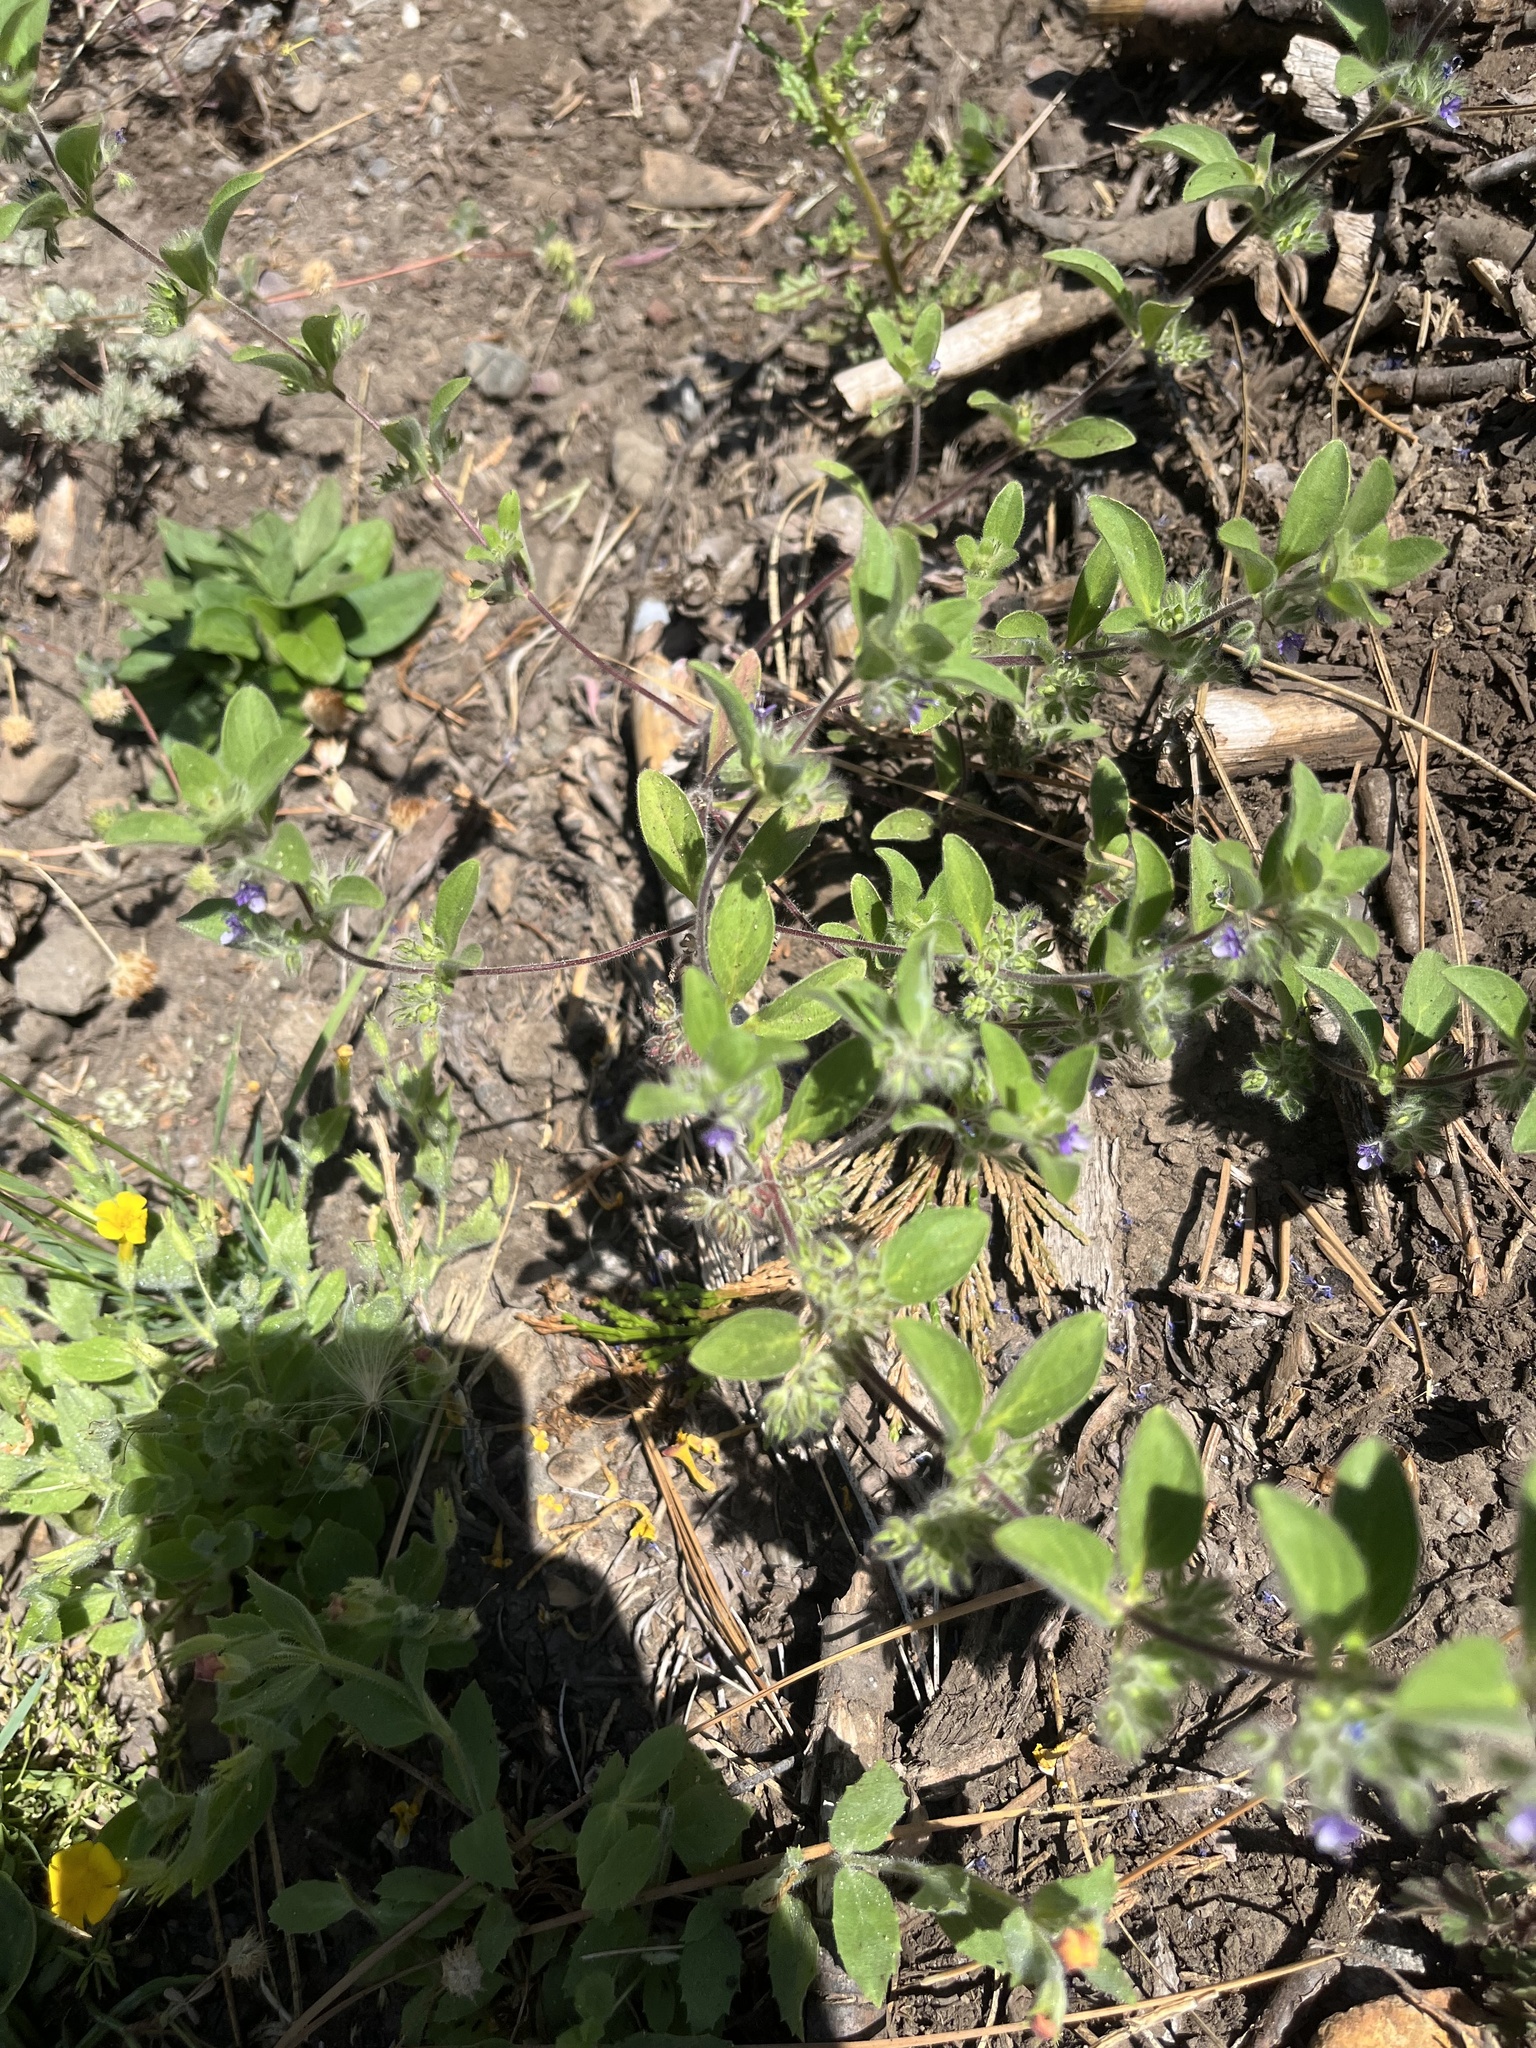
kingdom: Plantae
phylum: Tracheophyta
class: Magnoliopsida
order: Lamiales
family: Lamiaceae
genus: Trichostema
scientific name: Trichostema oblongum
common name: Mountain bluecurls
